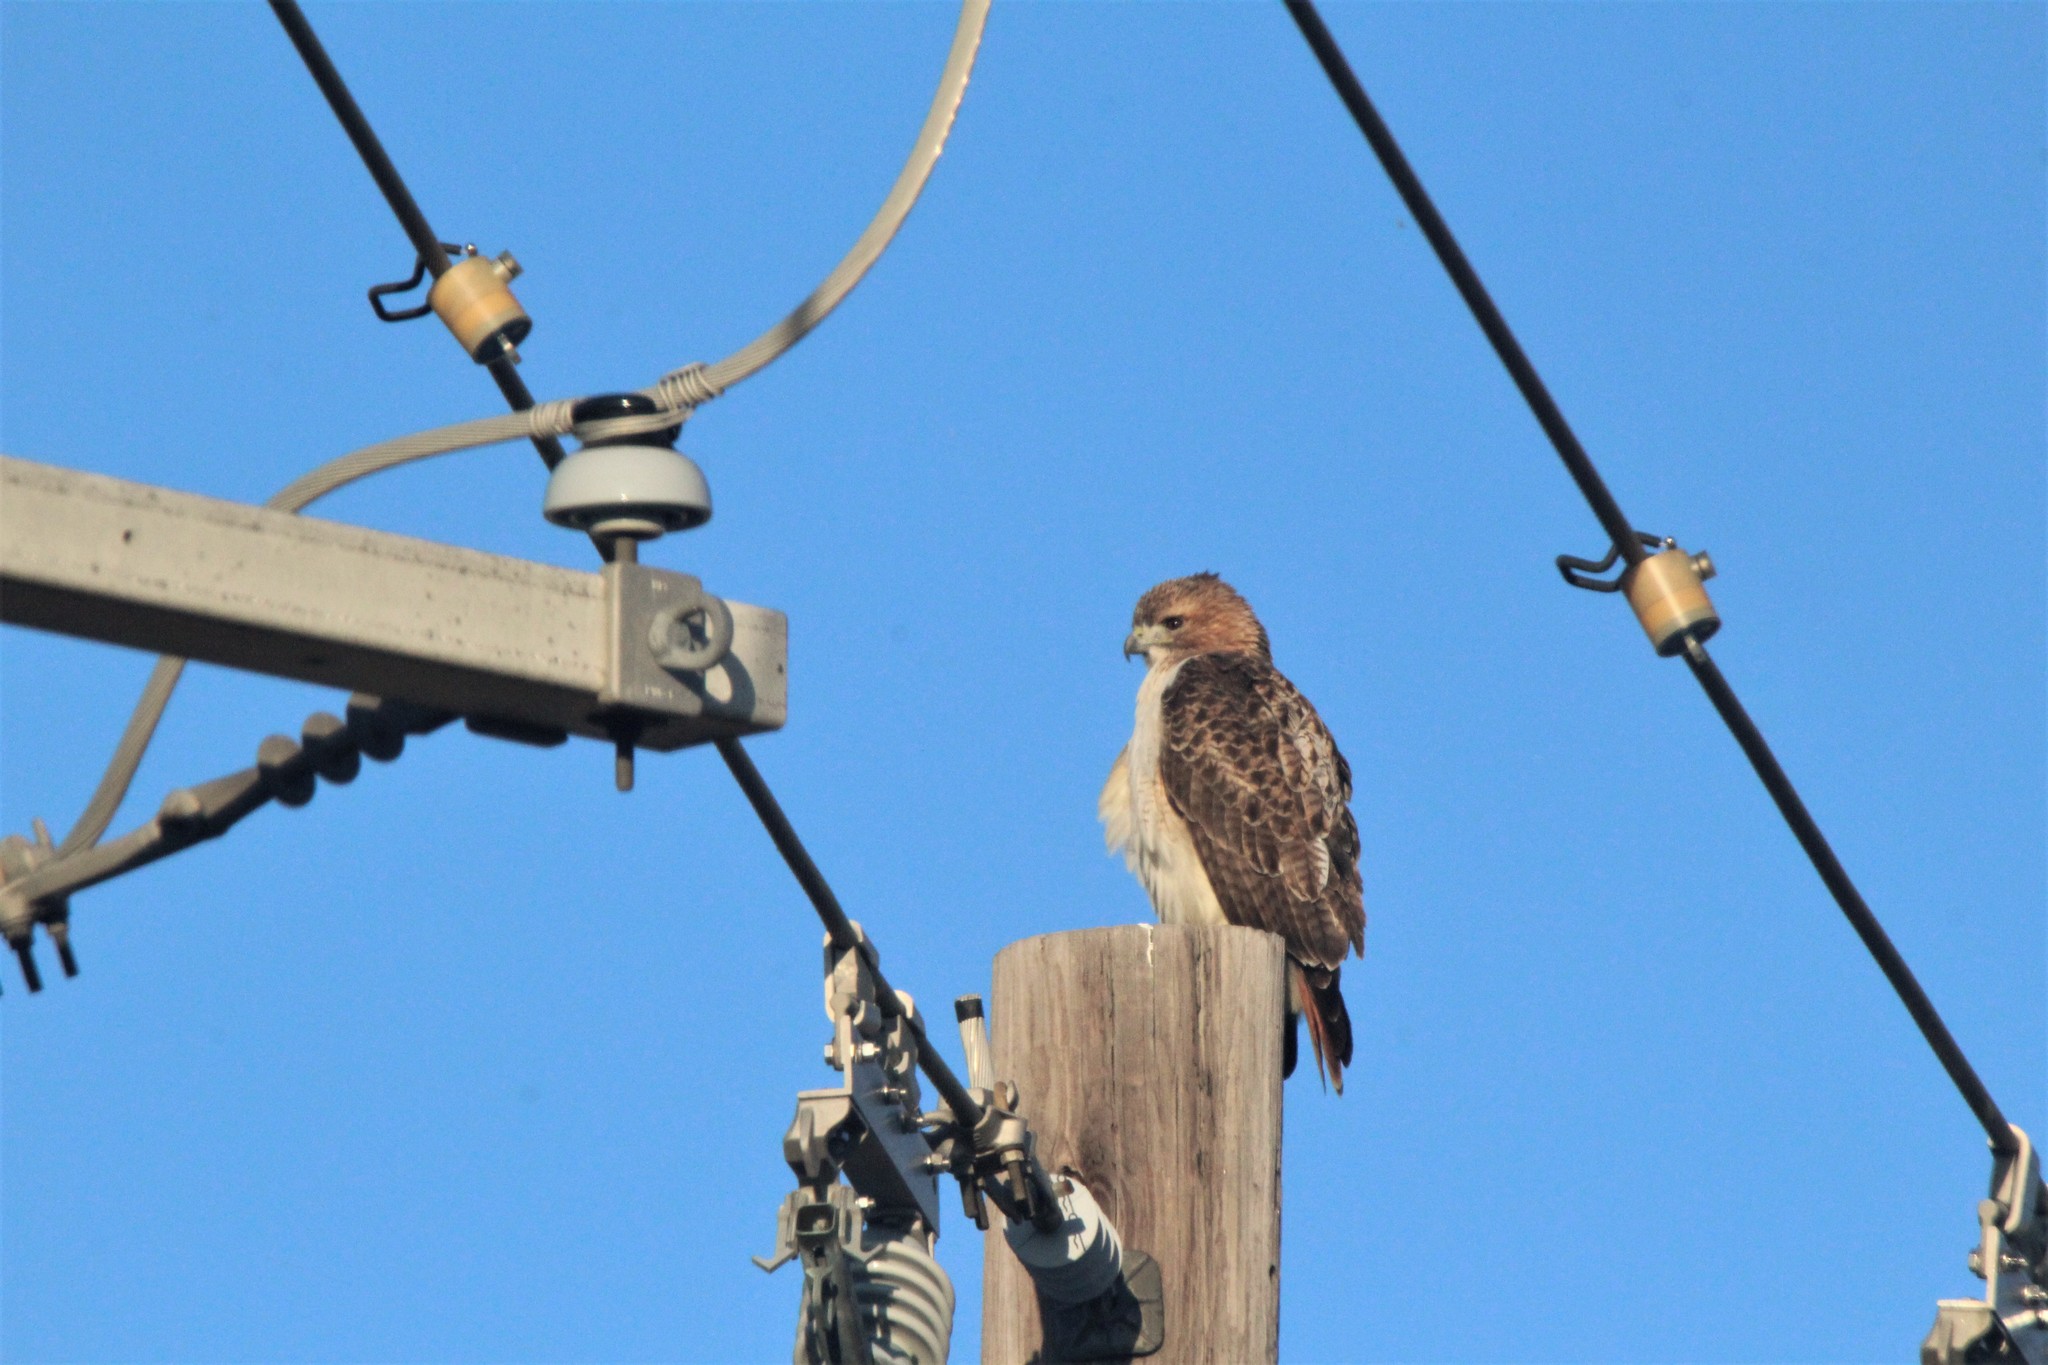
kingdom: Animalia
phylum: Chordata
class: Aves
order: Accipitriformes
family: Accipitridae
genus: Buteo
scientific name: Buteo jamaicensis
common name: Red-tailed hawk
